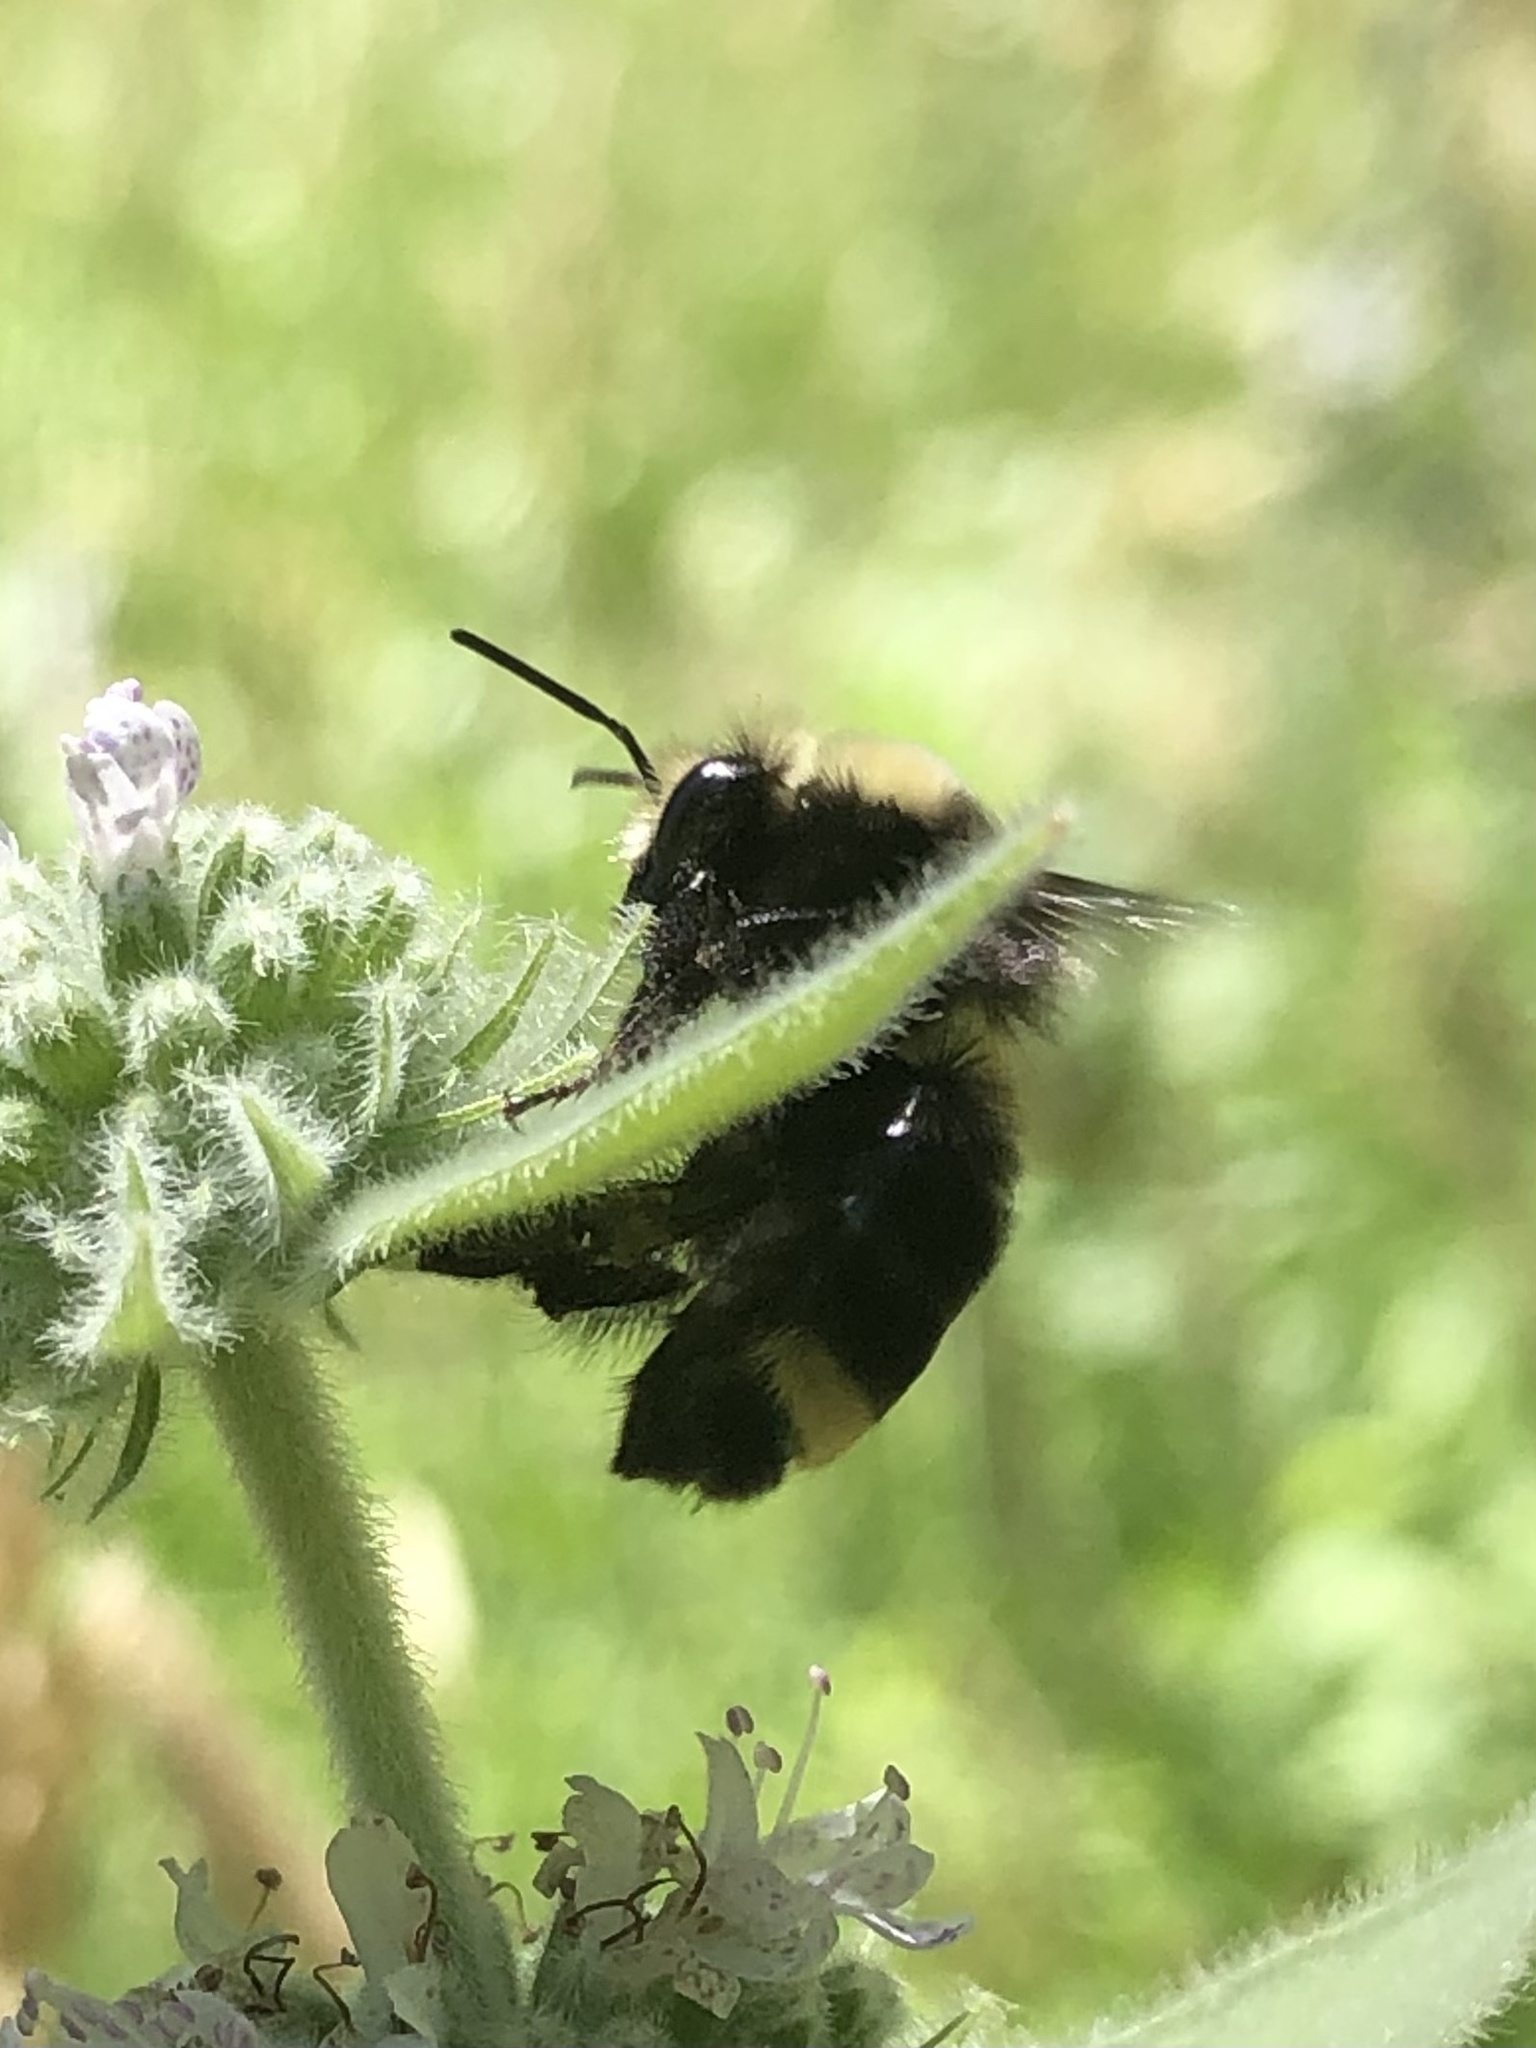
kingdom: Animalia
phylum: Arthropoda
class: Insecta
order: Hymenoptera
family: Apidae
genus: Bombus
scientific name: Bombus vosnesenskii
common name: Vosnesensky bumble bee
